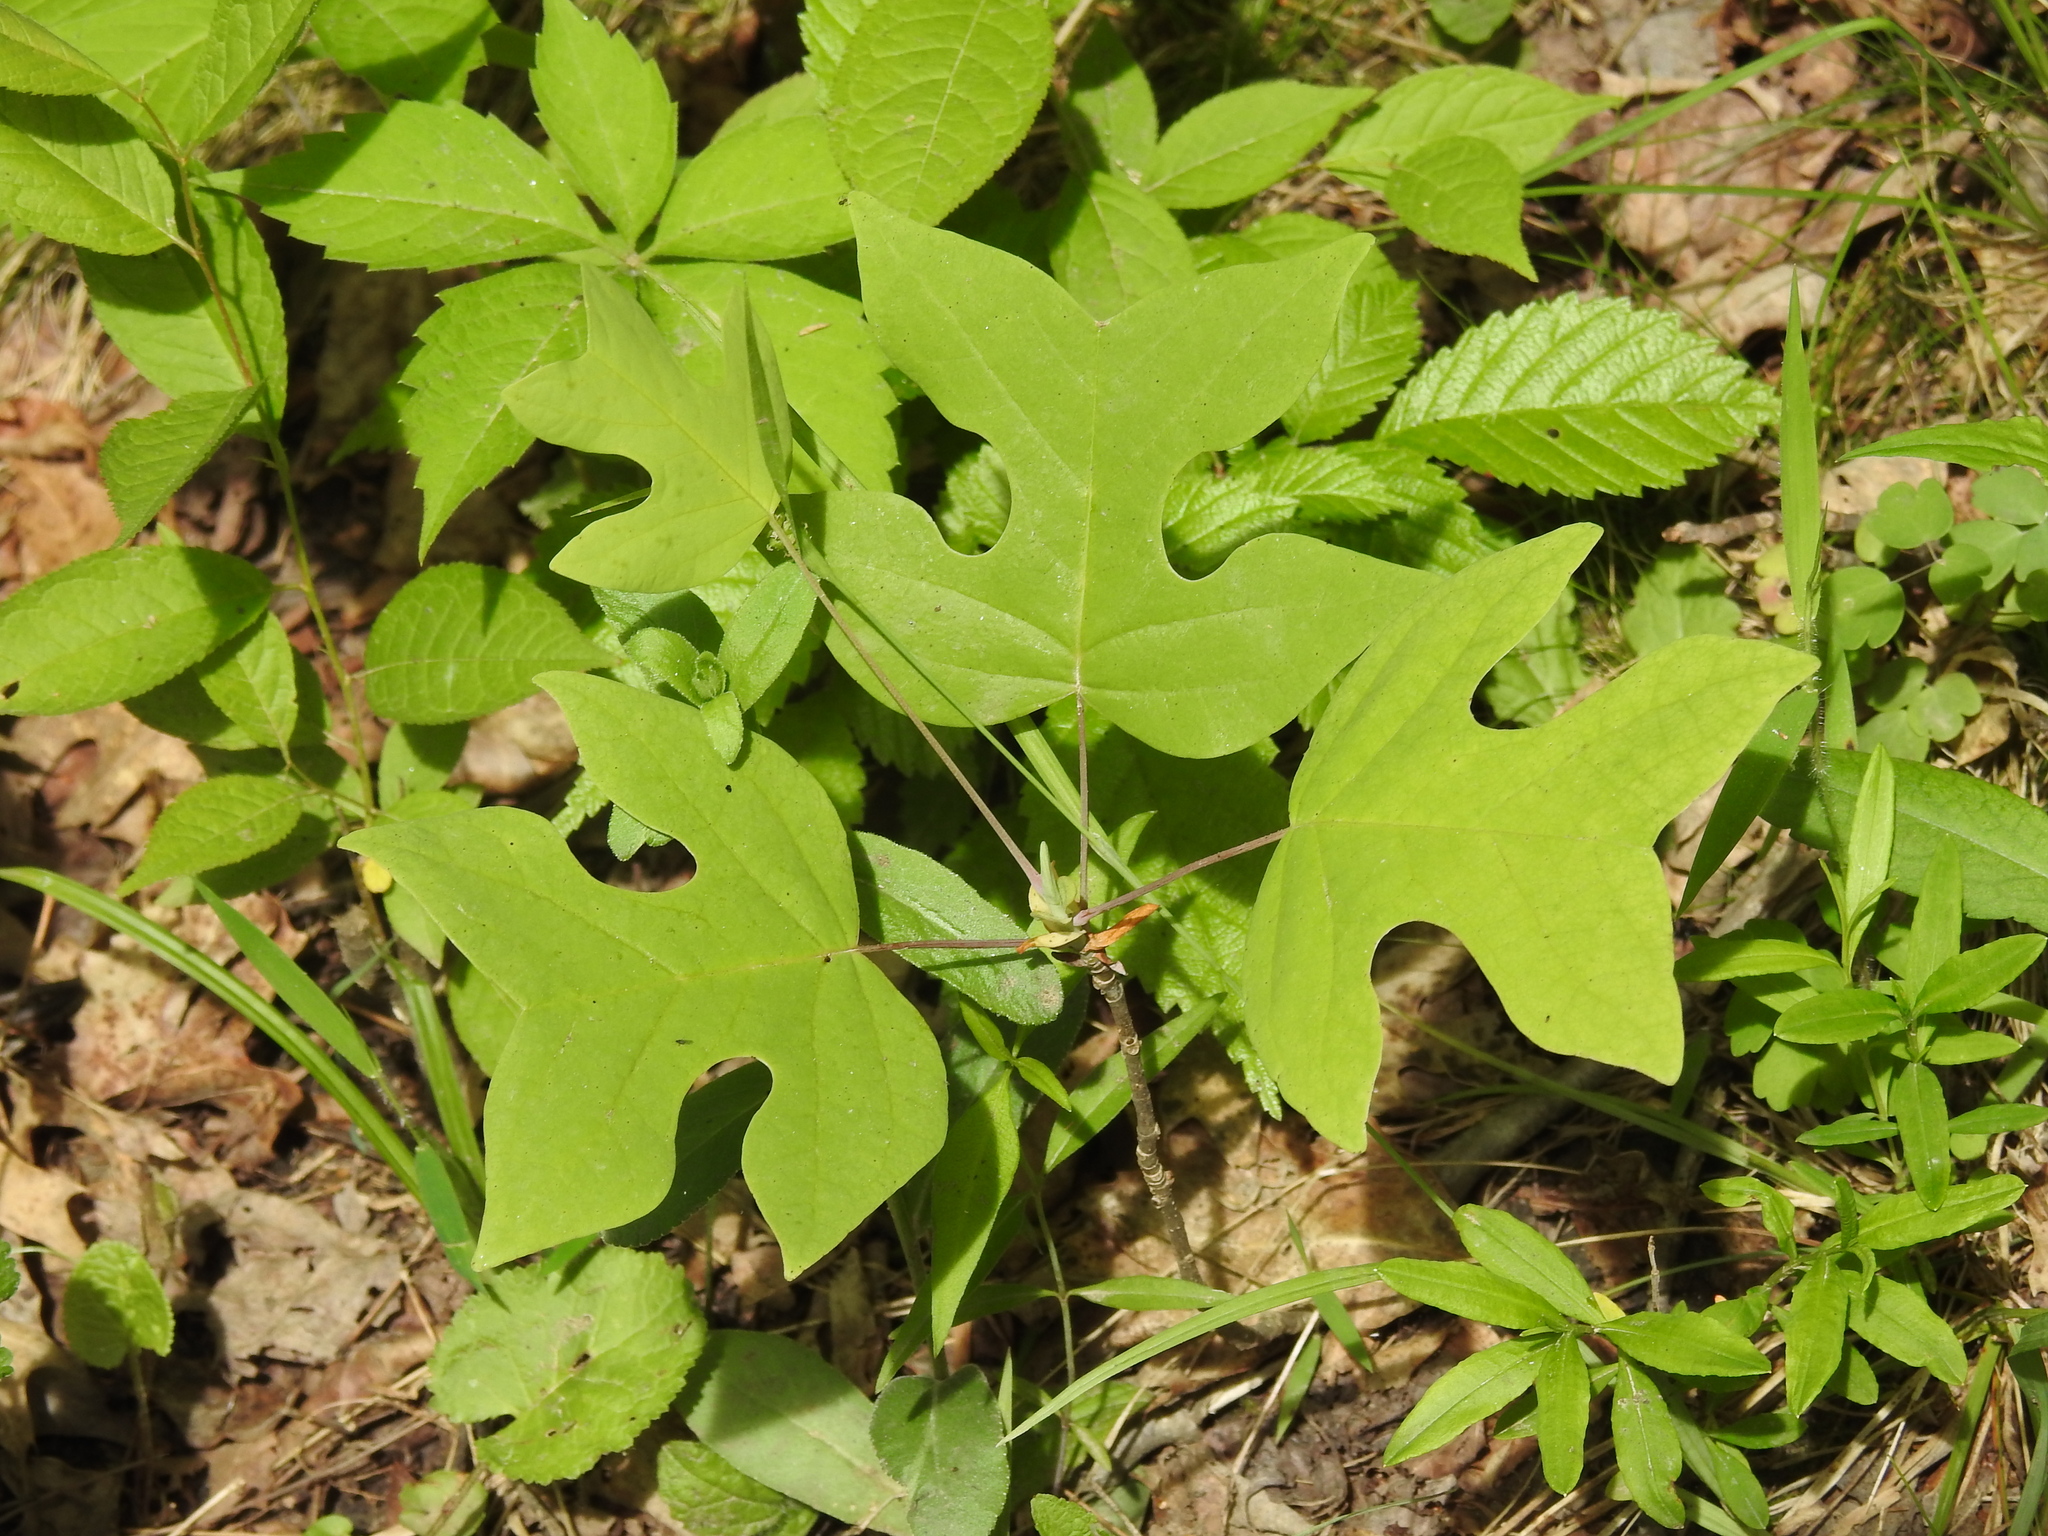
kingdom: Plantae
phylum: Tracheophyta
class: Magnoliopsida
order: Magnoliales
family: Magnoliaceae
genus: Liriodendron
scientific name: Liriodendron tulipifera
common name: Tulip tree
